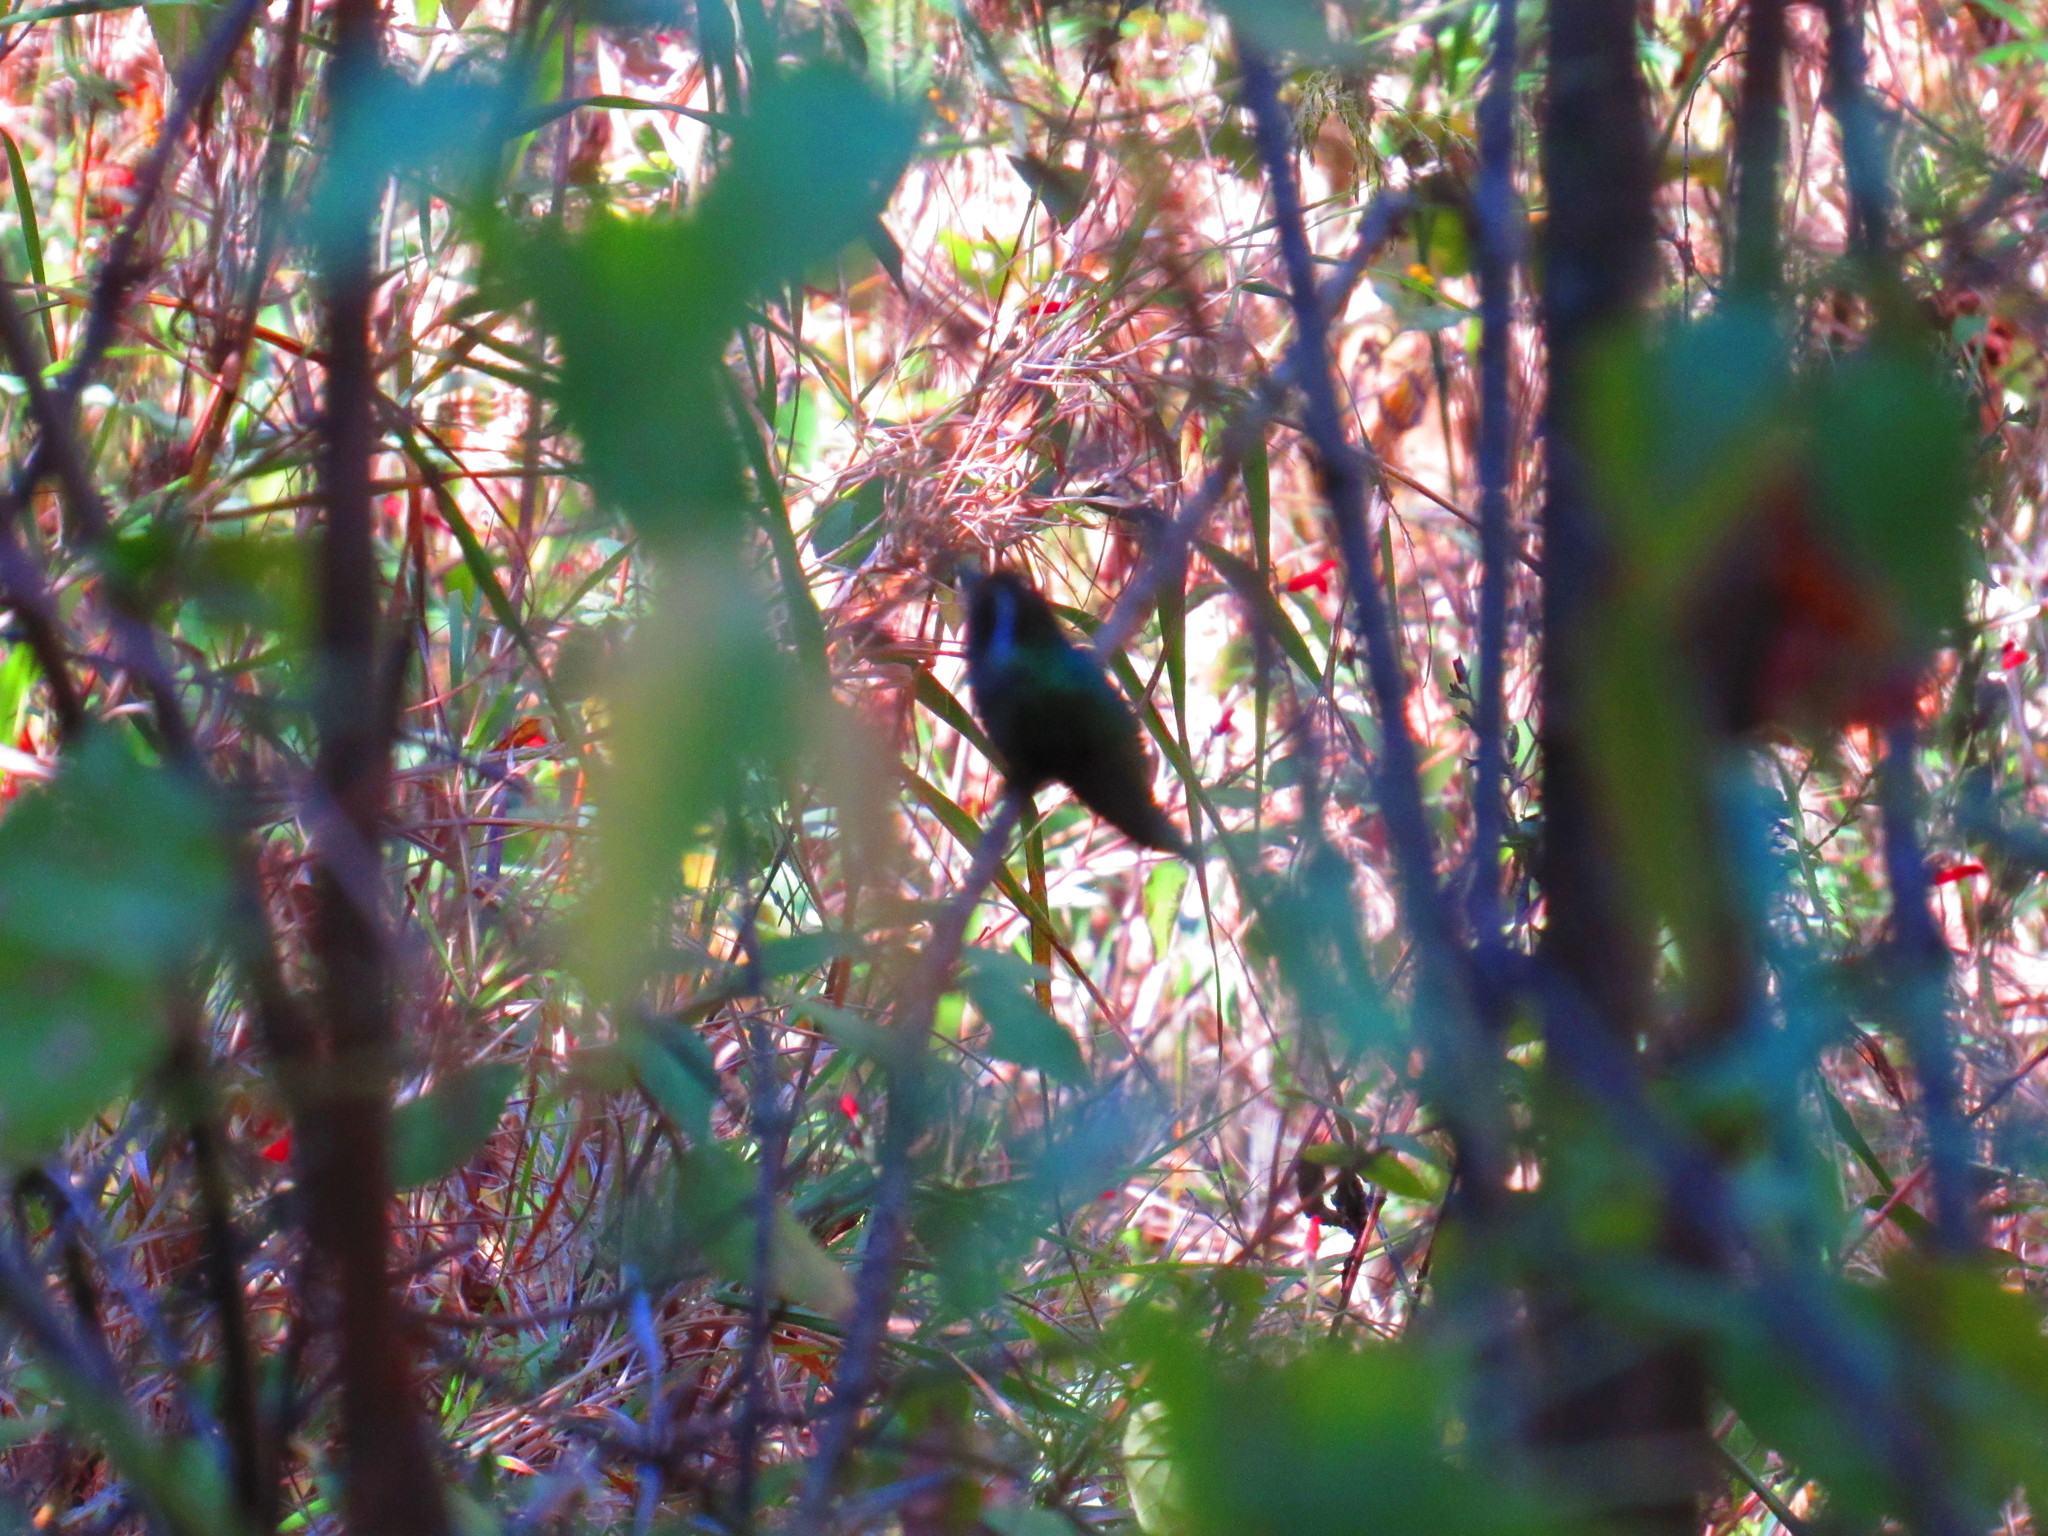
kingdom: Animalia
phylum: Chordata
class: Aves
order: Apodiformes
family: Trochilidae
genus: Basilinna
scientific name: Basilinna leucotis
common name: White-eared hummingbird
